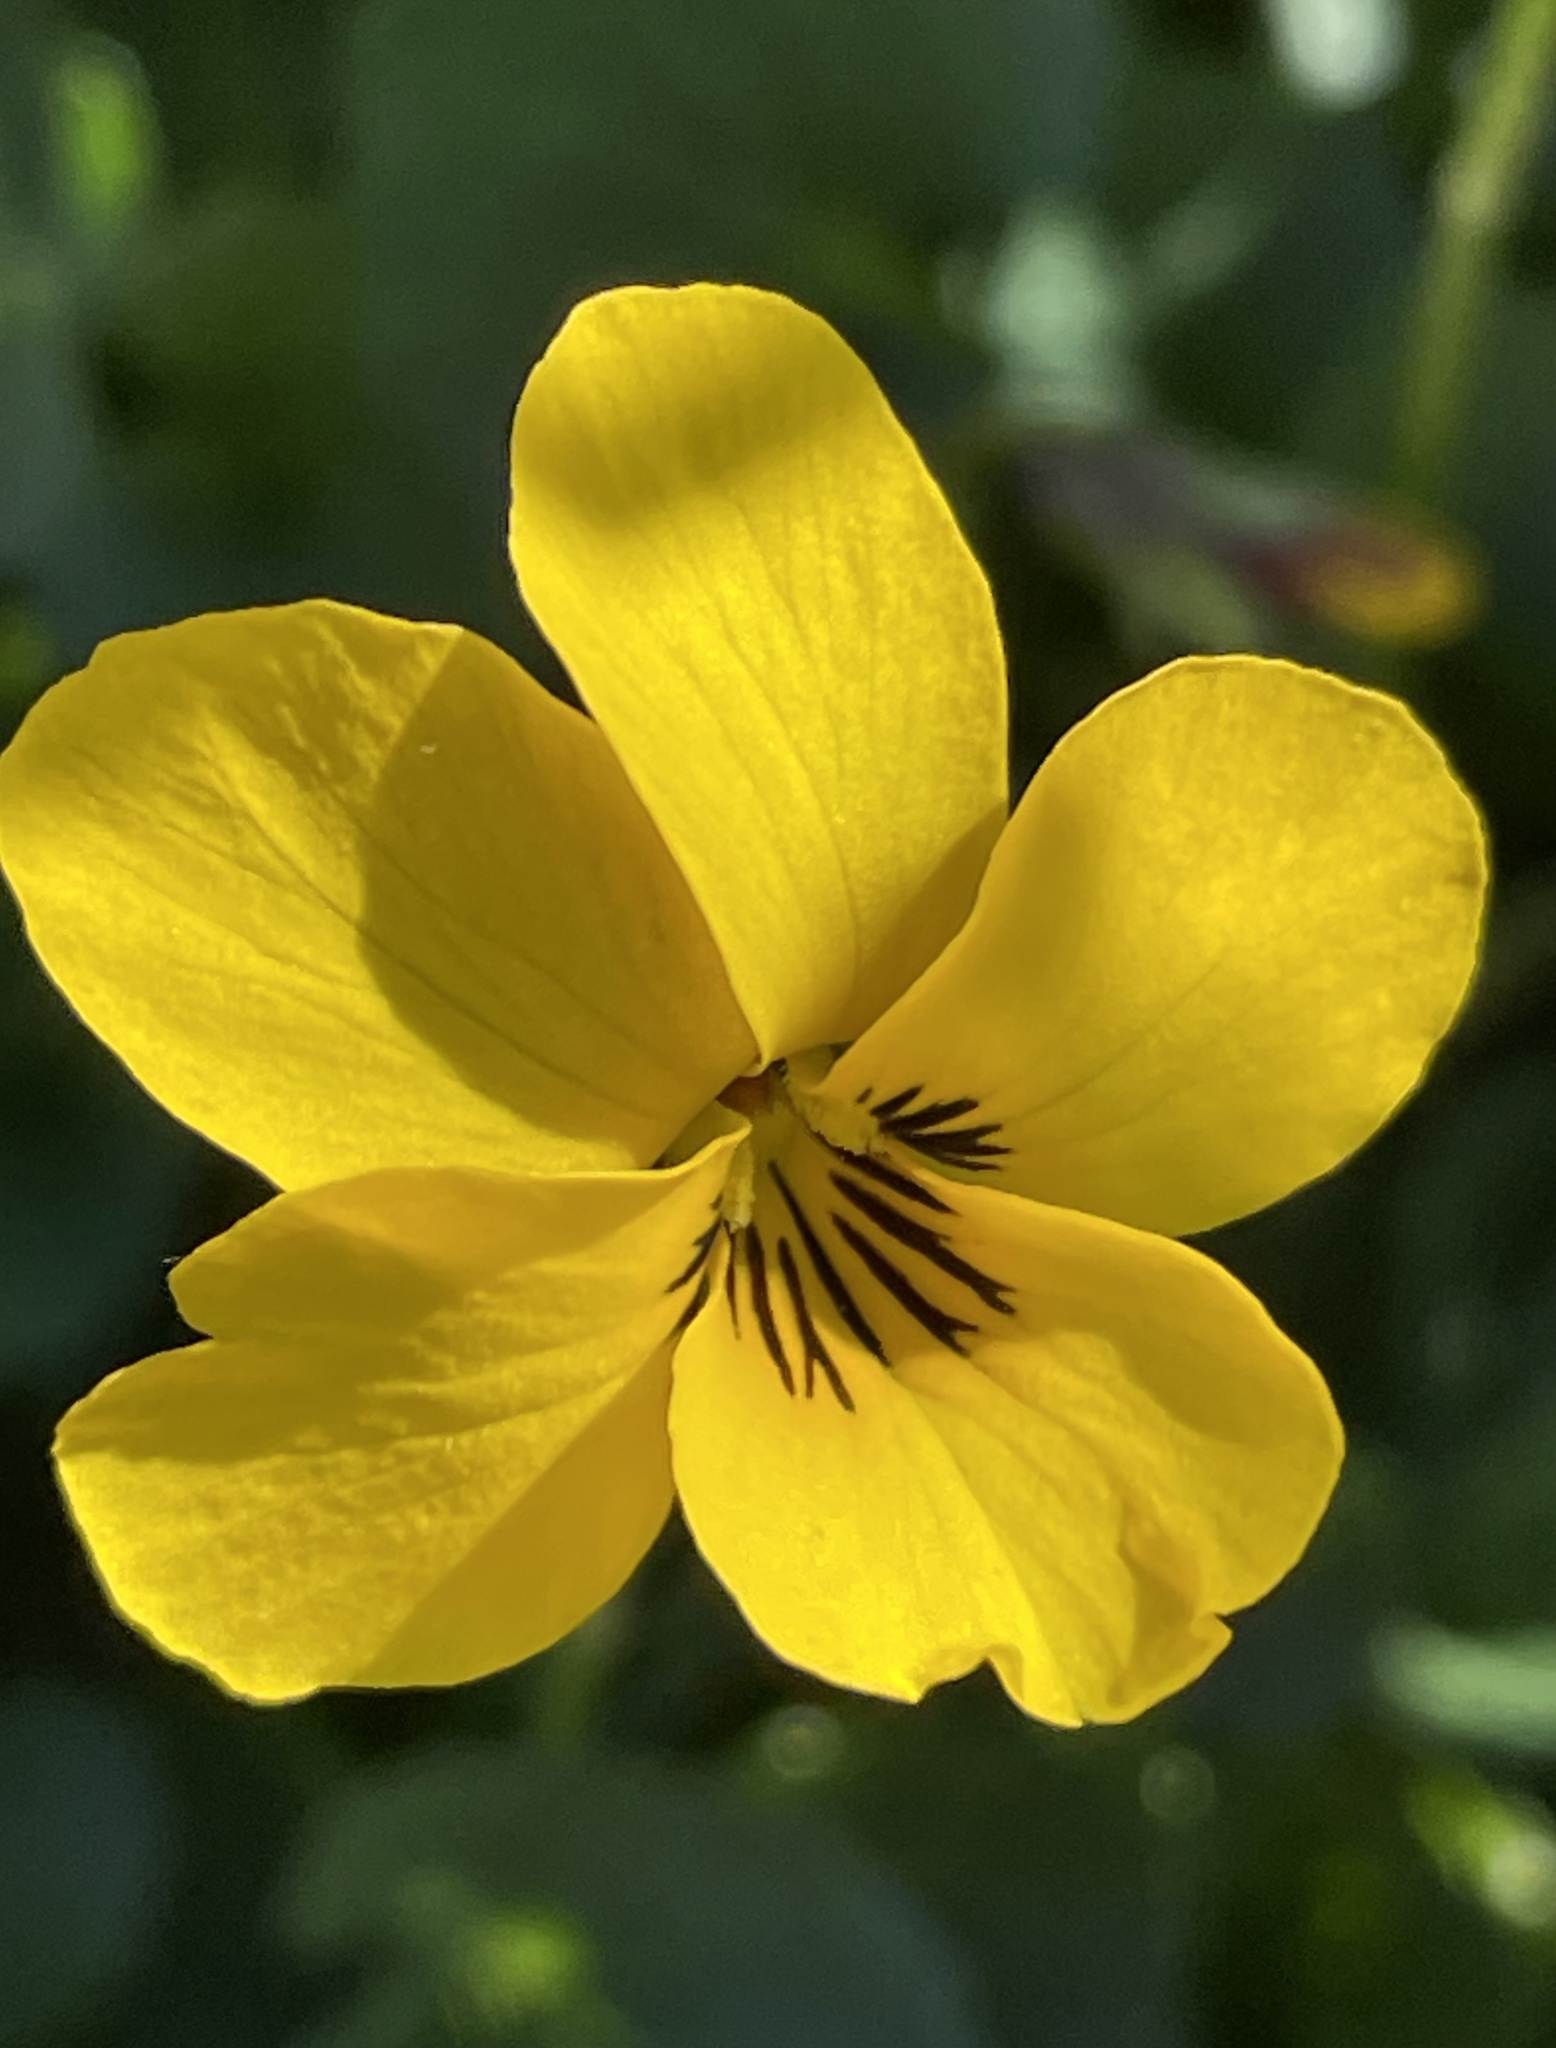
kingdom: Plantae
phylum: Tracheophyta
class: Magnoliopsida
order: Malpighiales
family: Violaceae
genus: Viola
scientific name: Viola pedunculata
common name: California golden violet
